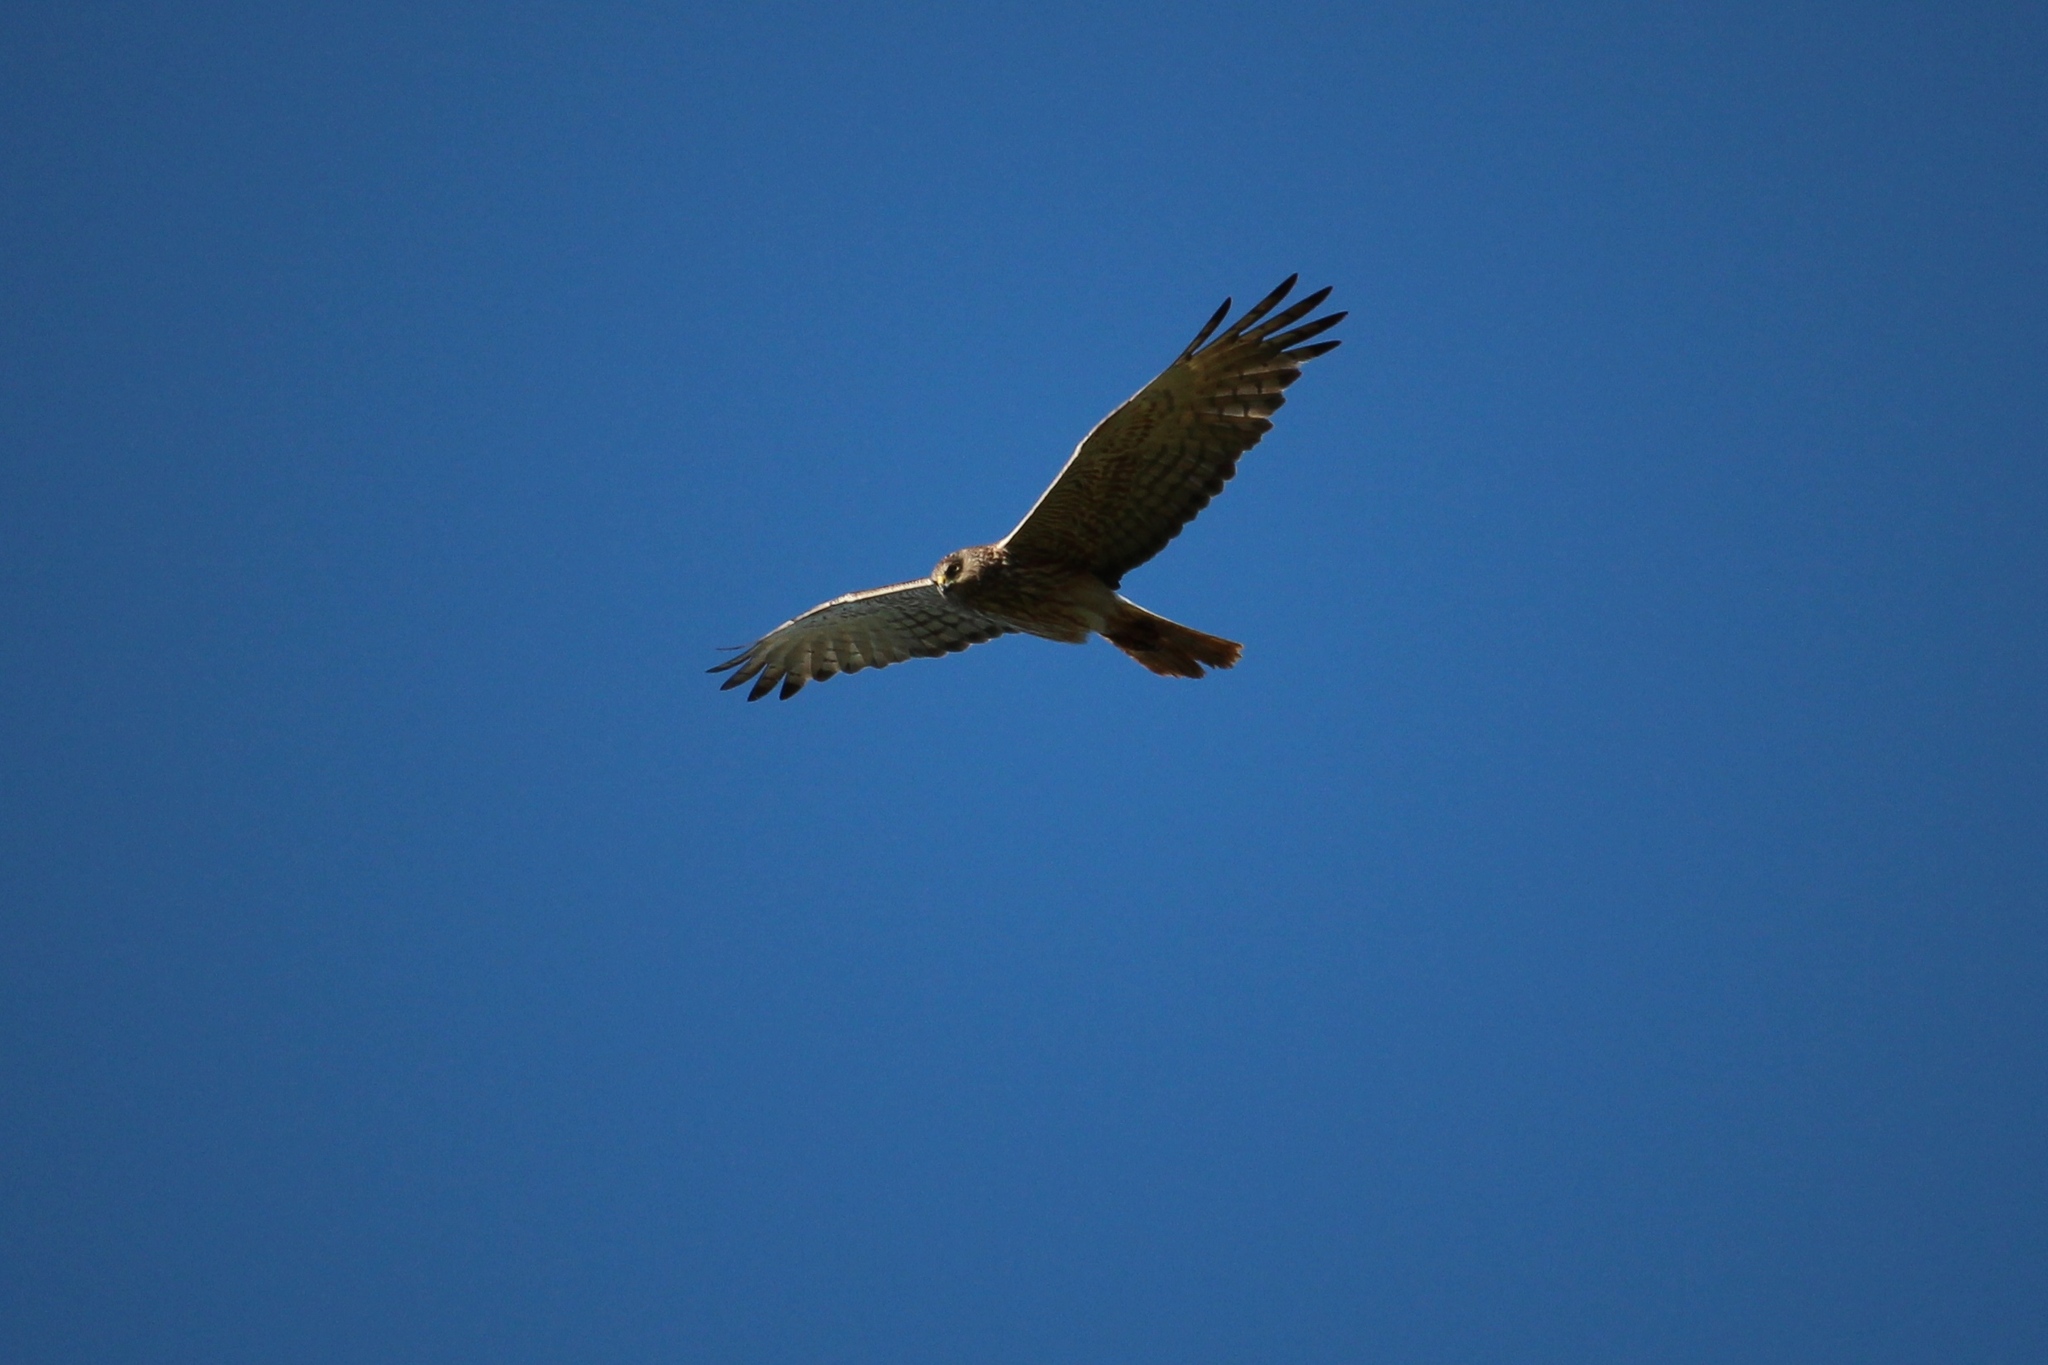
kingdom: Animalia
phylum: Chordata
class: Aves
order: Accipitriformes
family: Accipitridae
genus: Circus
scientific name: Circus approximans
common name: Swamp harrier
